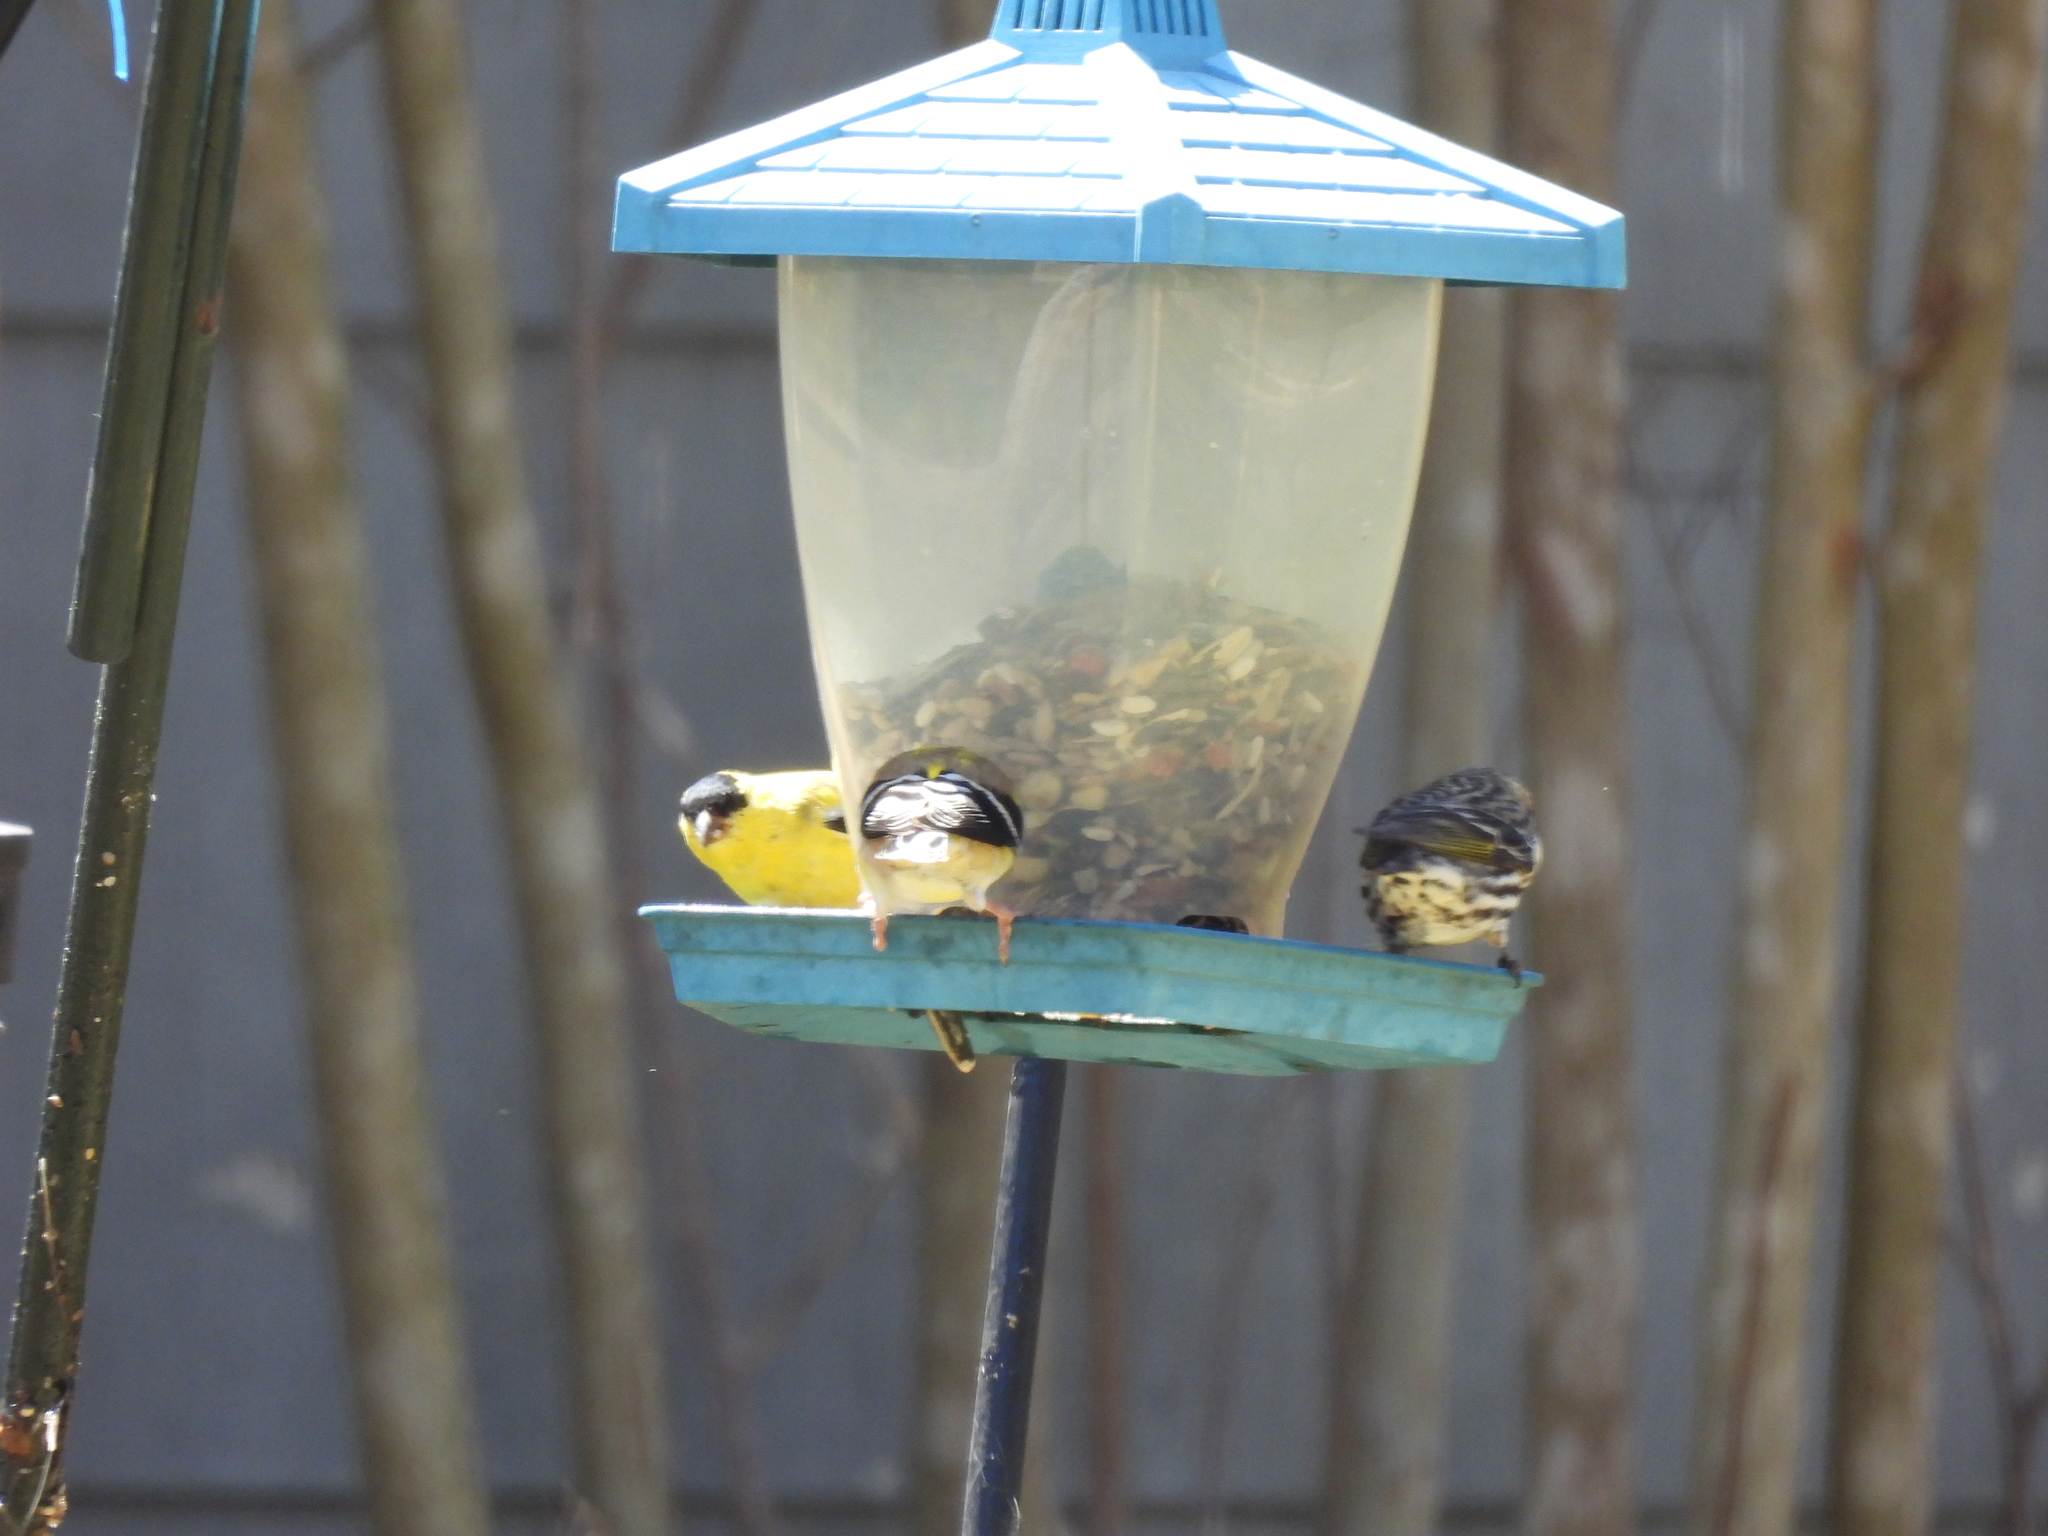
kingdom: Animalia
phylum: Chordata
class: Aves
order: Passeriformes
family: Fringillidae
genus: Spinus
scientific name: Spinus psaltria
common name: Lesser goldfinch
